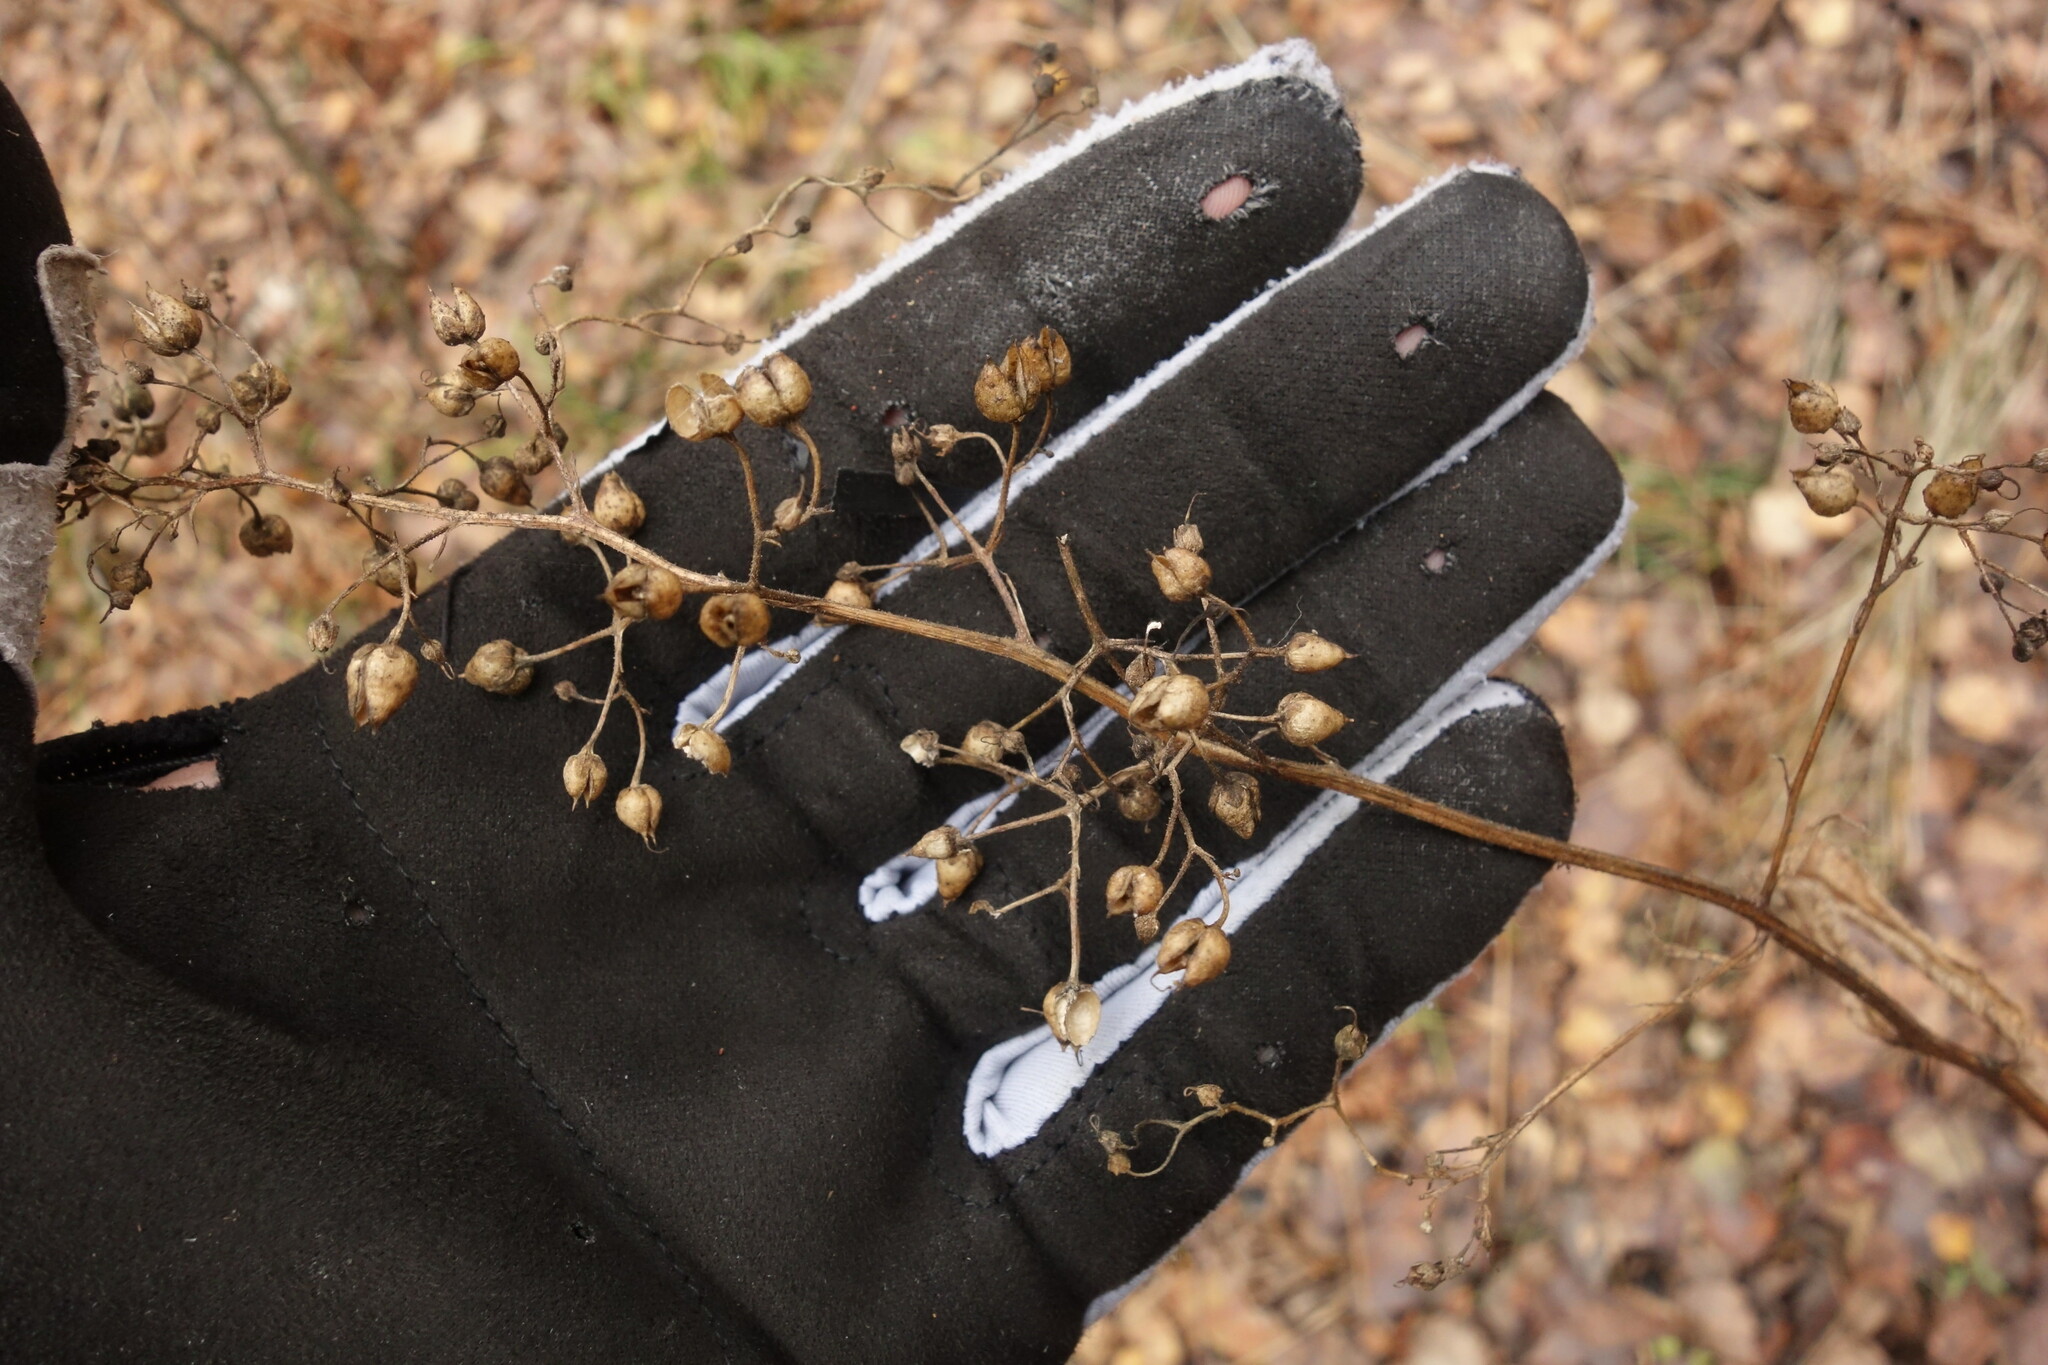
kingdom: Plantae
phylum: Tracheophyta
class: Magnoliopsida
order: Lamiales
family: Scrophulariaceae
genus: Scrophularia
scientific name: Scrophularia nodosa
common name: Common figwort
